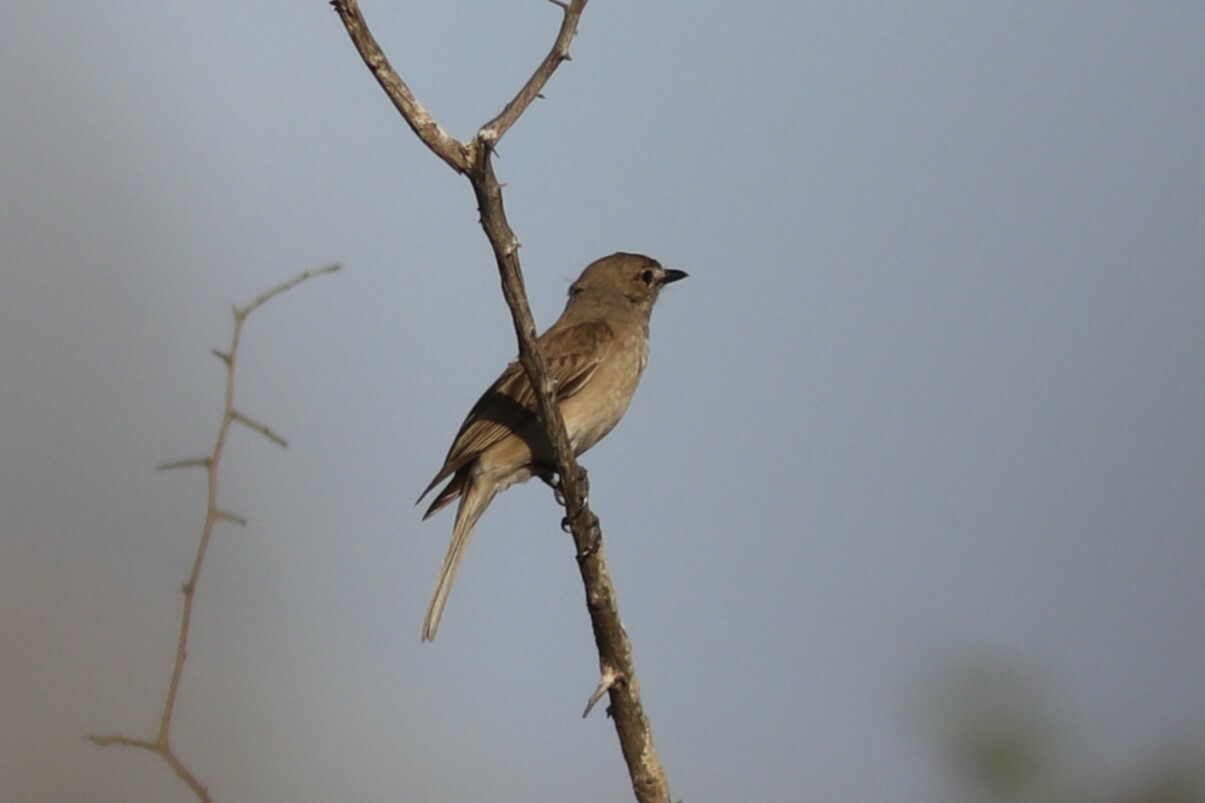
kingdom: Animalia
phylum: Chordata
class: Aves
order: Passeriformes
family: Muscicapidae
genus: Bradornis
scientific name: Bradornis pallidus
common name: Pale flycatcher
